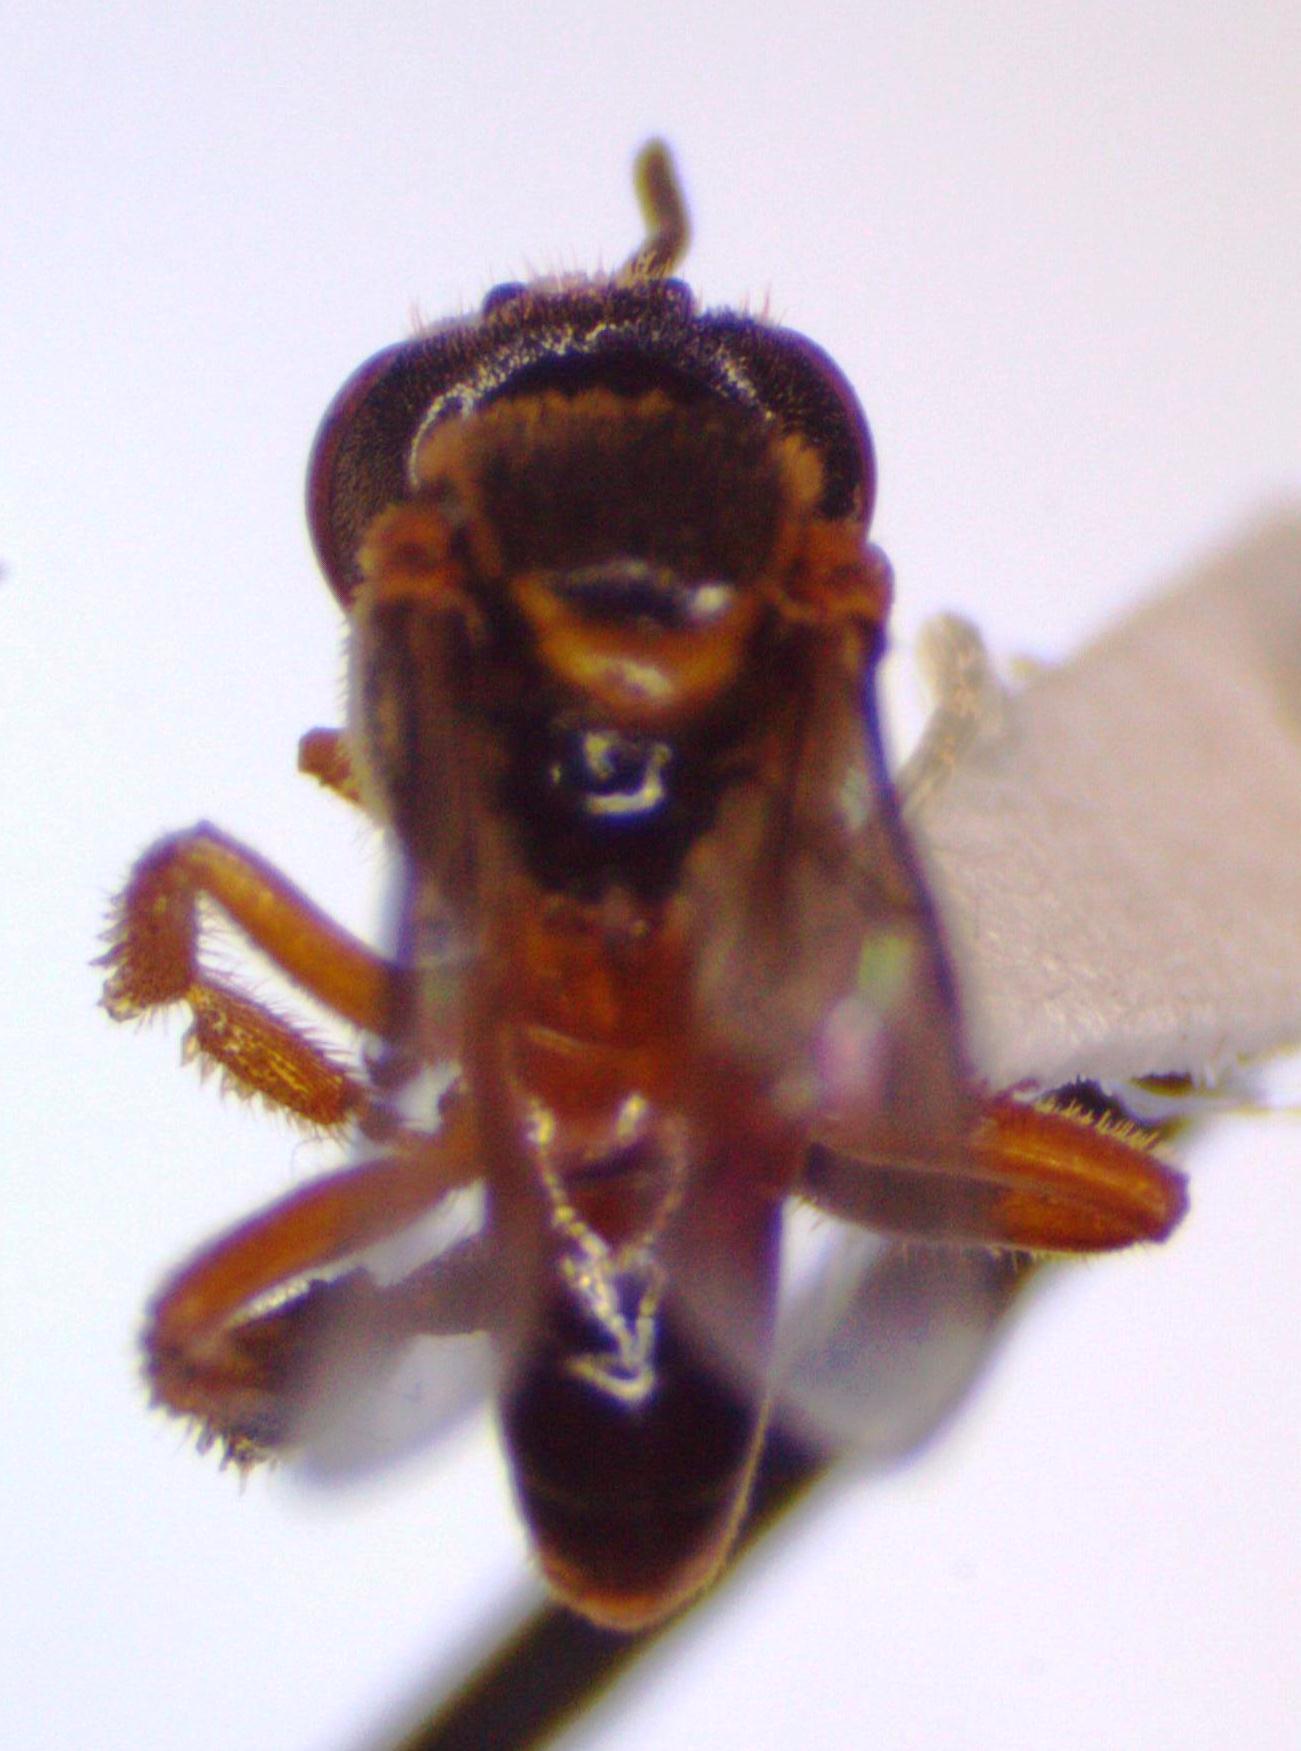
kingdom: Animalia
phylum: Arthropoda
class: Insecta
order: Hymenoptera
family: Apidae
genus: Tetragonisca
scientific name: Tetragonisca angustula
